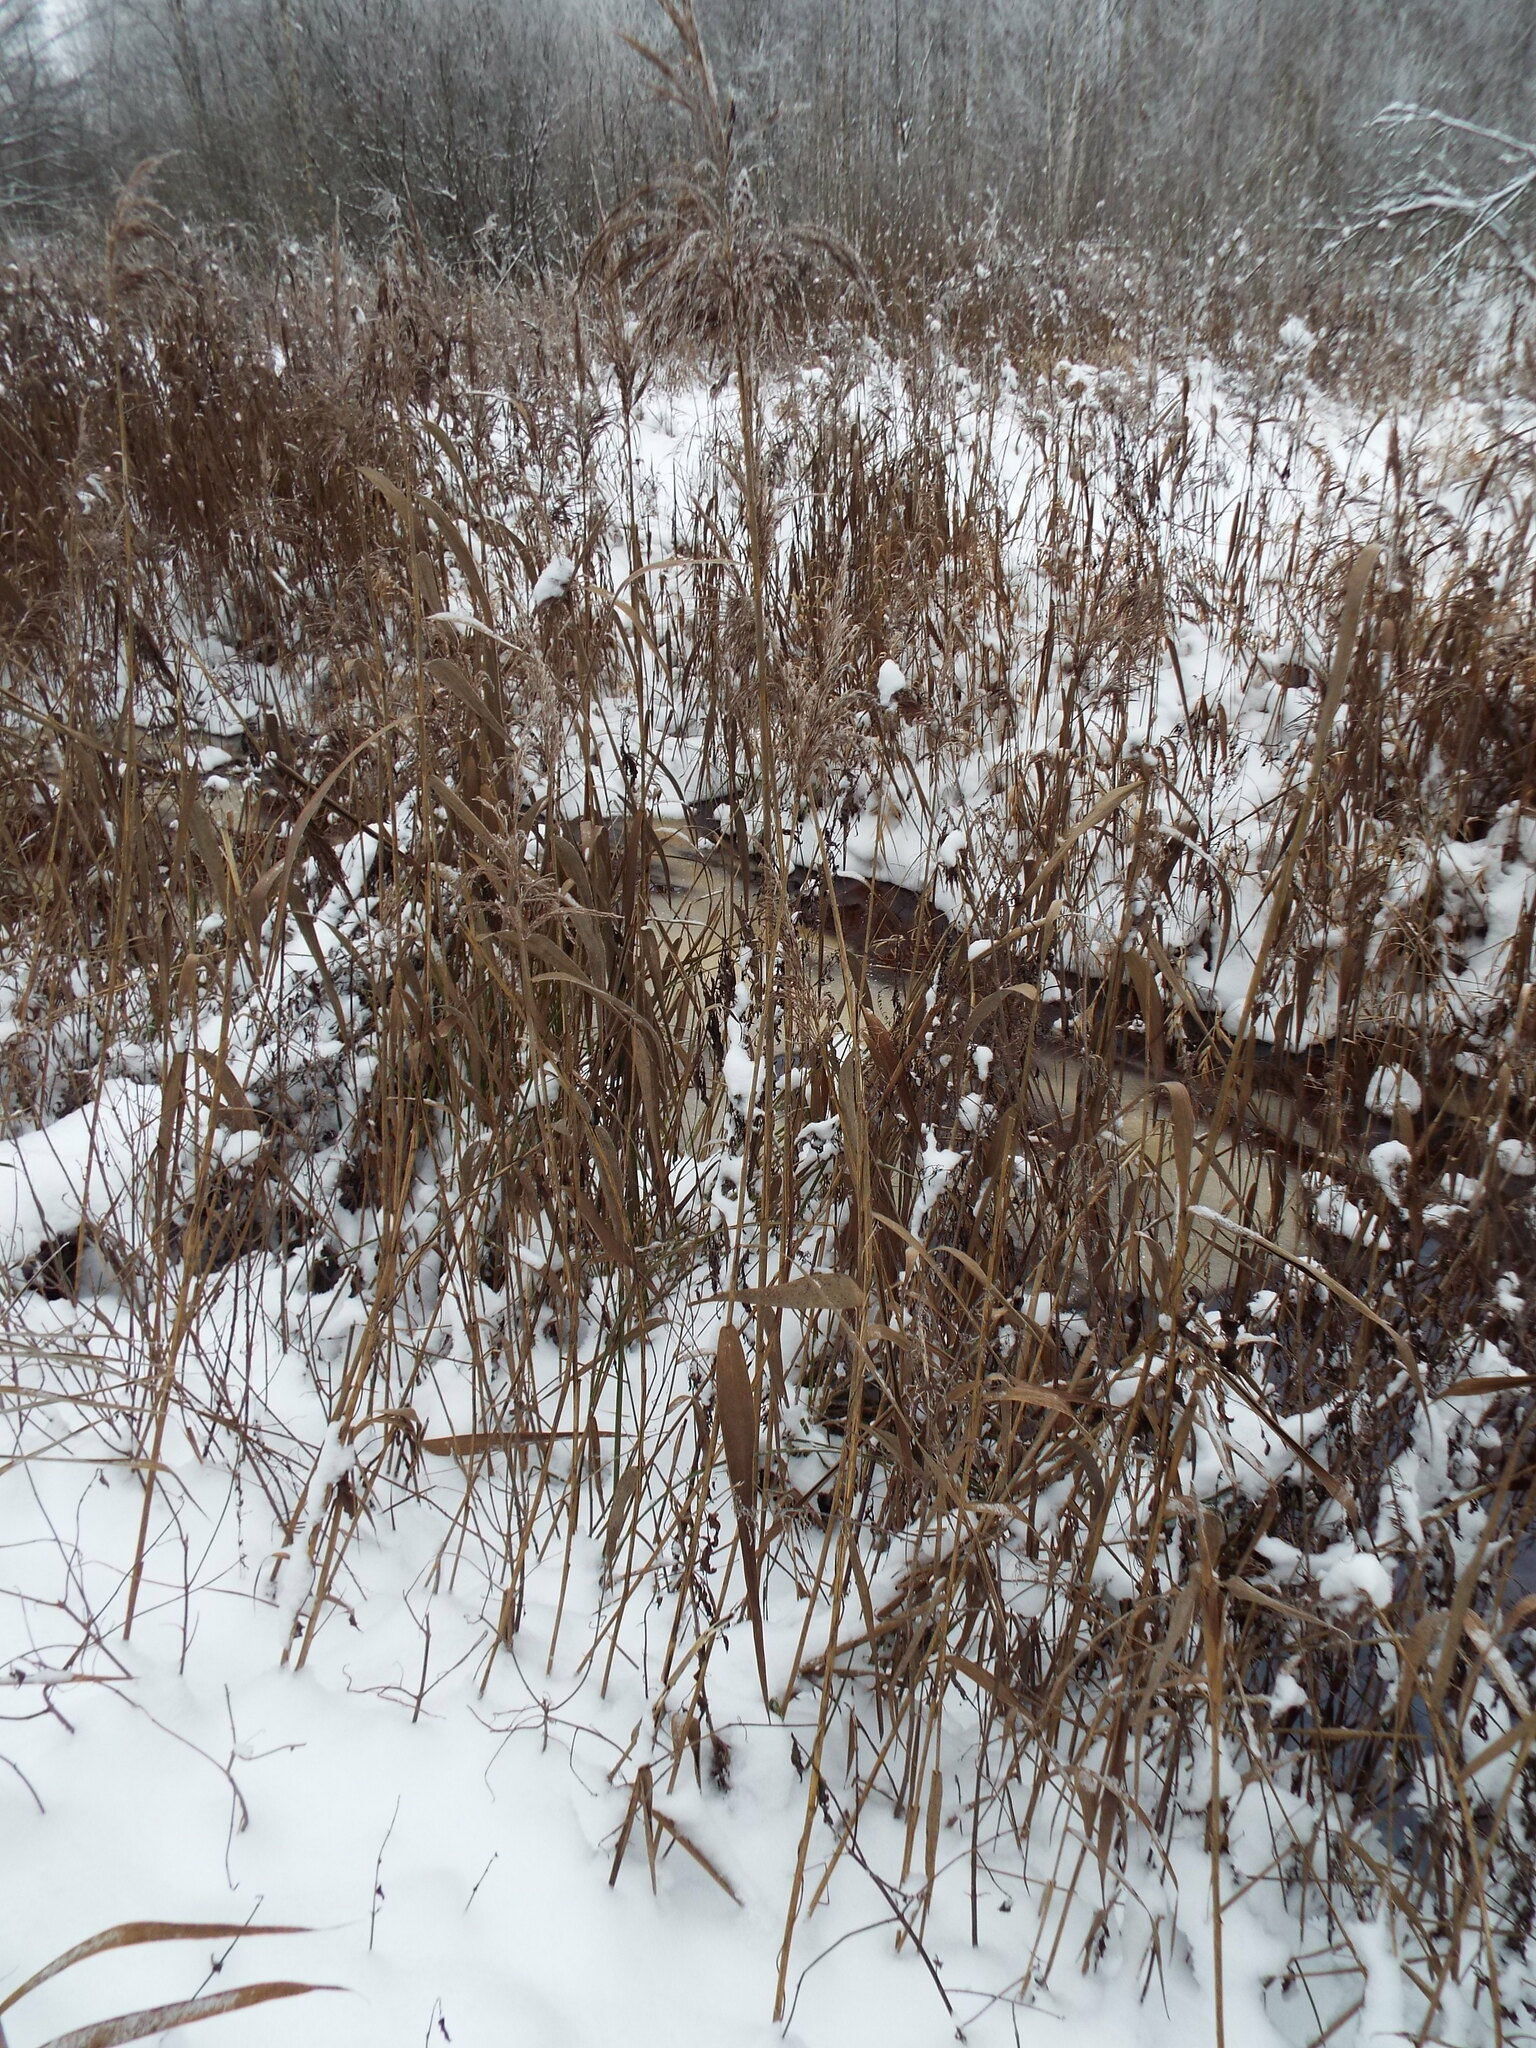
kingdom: Plantae
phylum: Tracheophyta
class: Liliopsida
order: Poales
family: Poaceae
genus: Phragmites
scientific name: Phragmites australis
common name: Common reed
